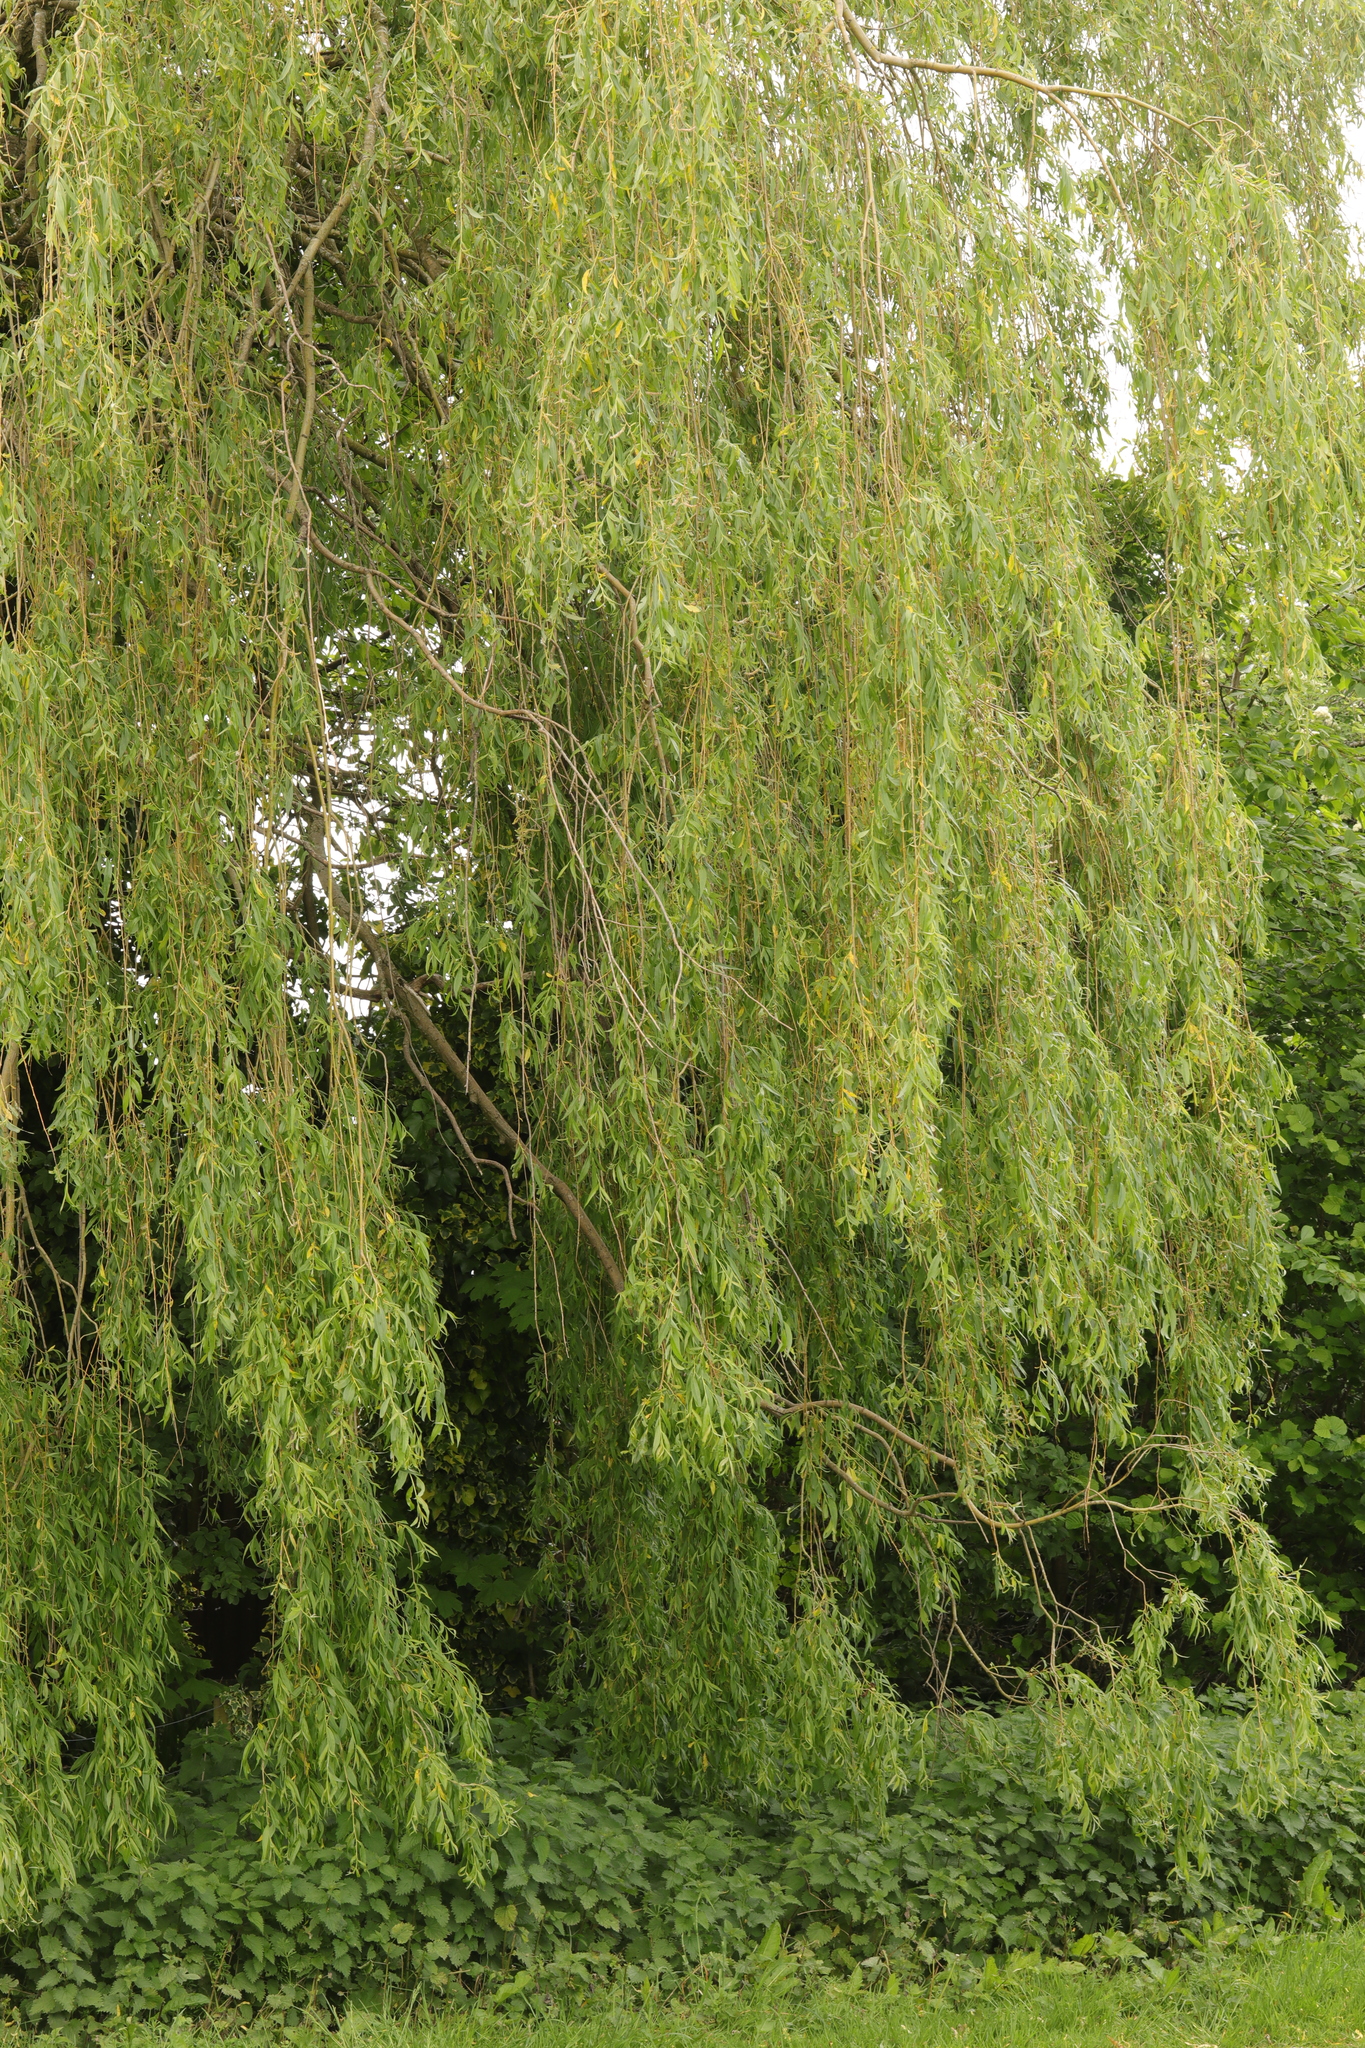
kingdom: Plantae
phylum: Tracheophyta
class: Magnoliopsida
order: Malpighiales
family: Salicaceae
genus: Salix
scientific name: Salix pendulina
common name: Wisconsin weeping willow
